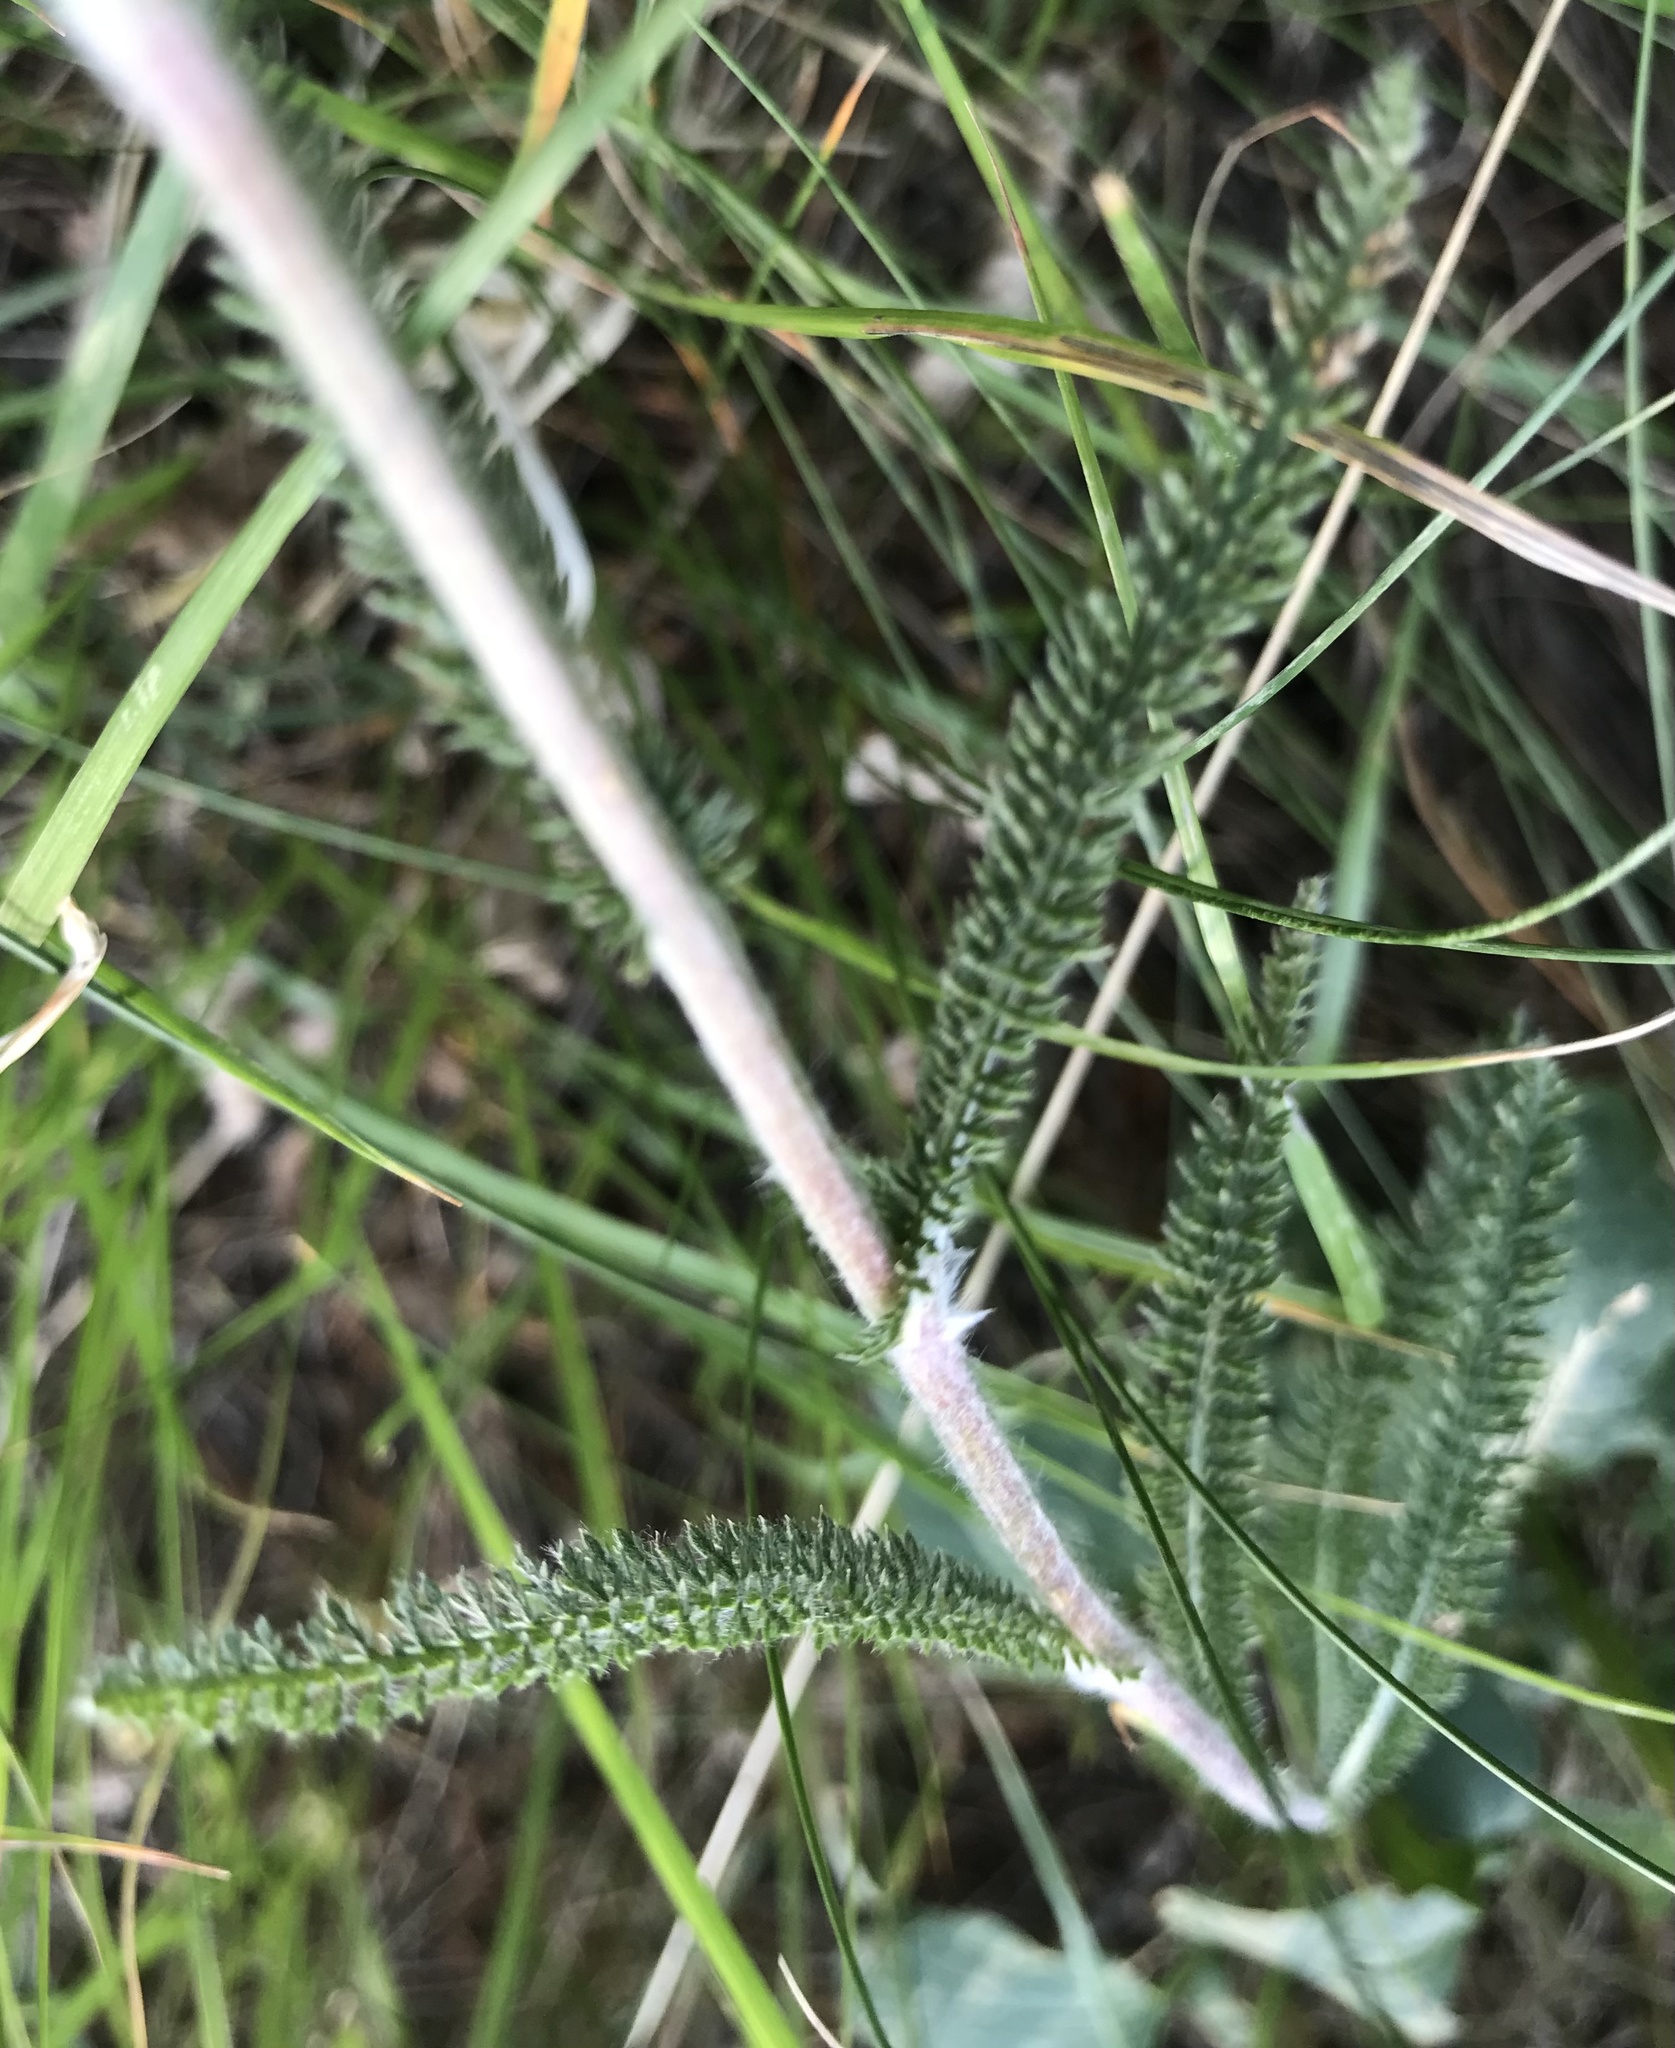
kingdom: Plantae
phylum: Tracheophyta
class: Magnoliopsida
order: Asterales
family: Asteraceae
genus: Achillea
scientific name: Achillea millefolium
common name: Yarrow
